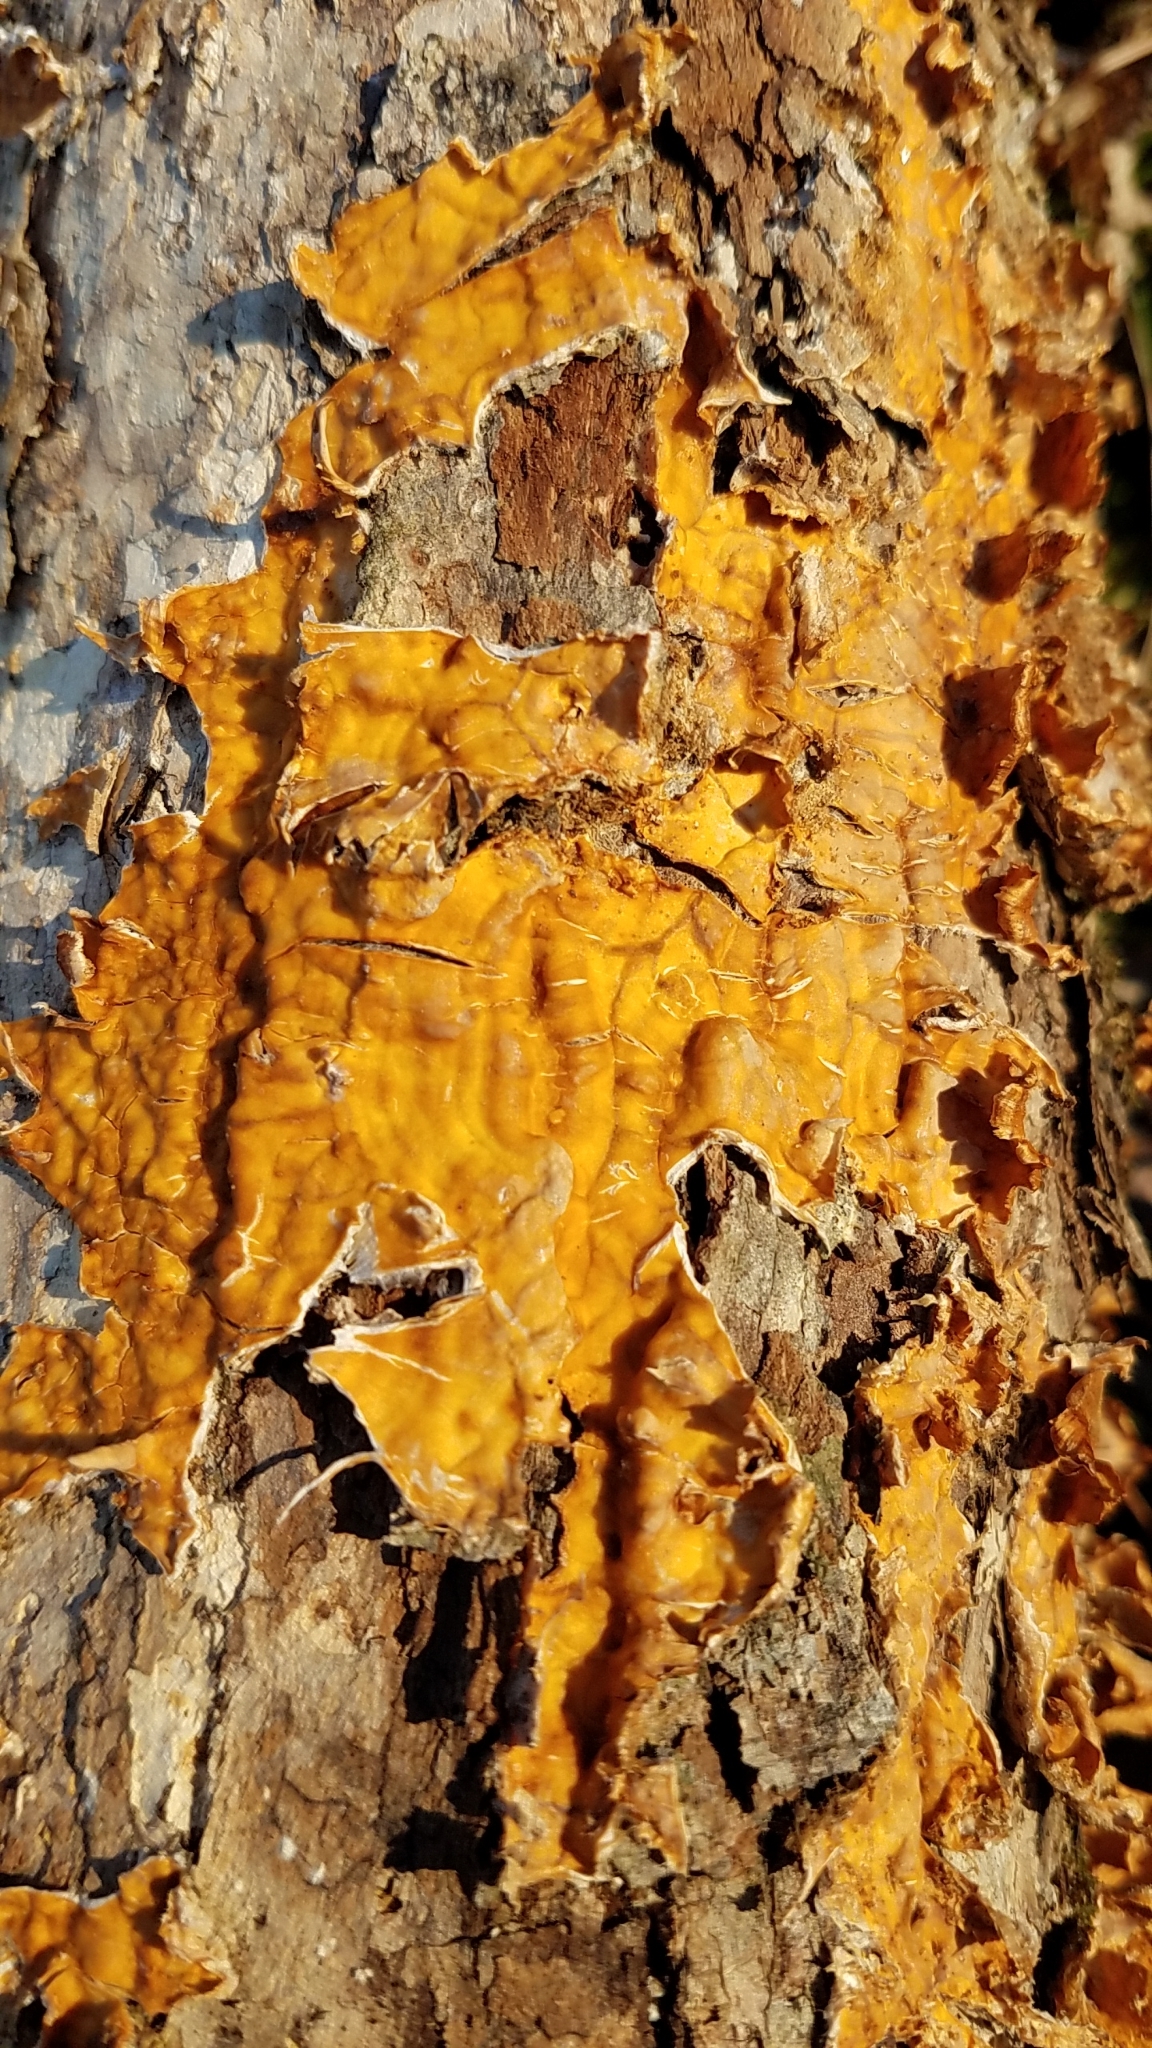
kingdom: Fungi
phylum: Basidiomycota
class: Agaricomycetes
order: Russulales
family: Stereaceae
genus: Stereum
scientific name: Stereum complicatum
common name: Crowded parchment
